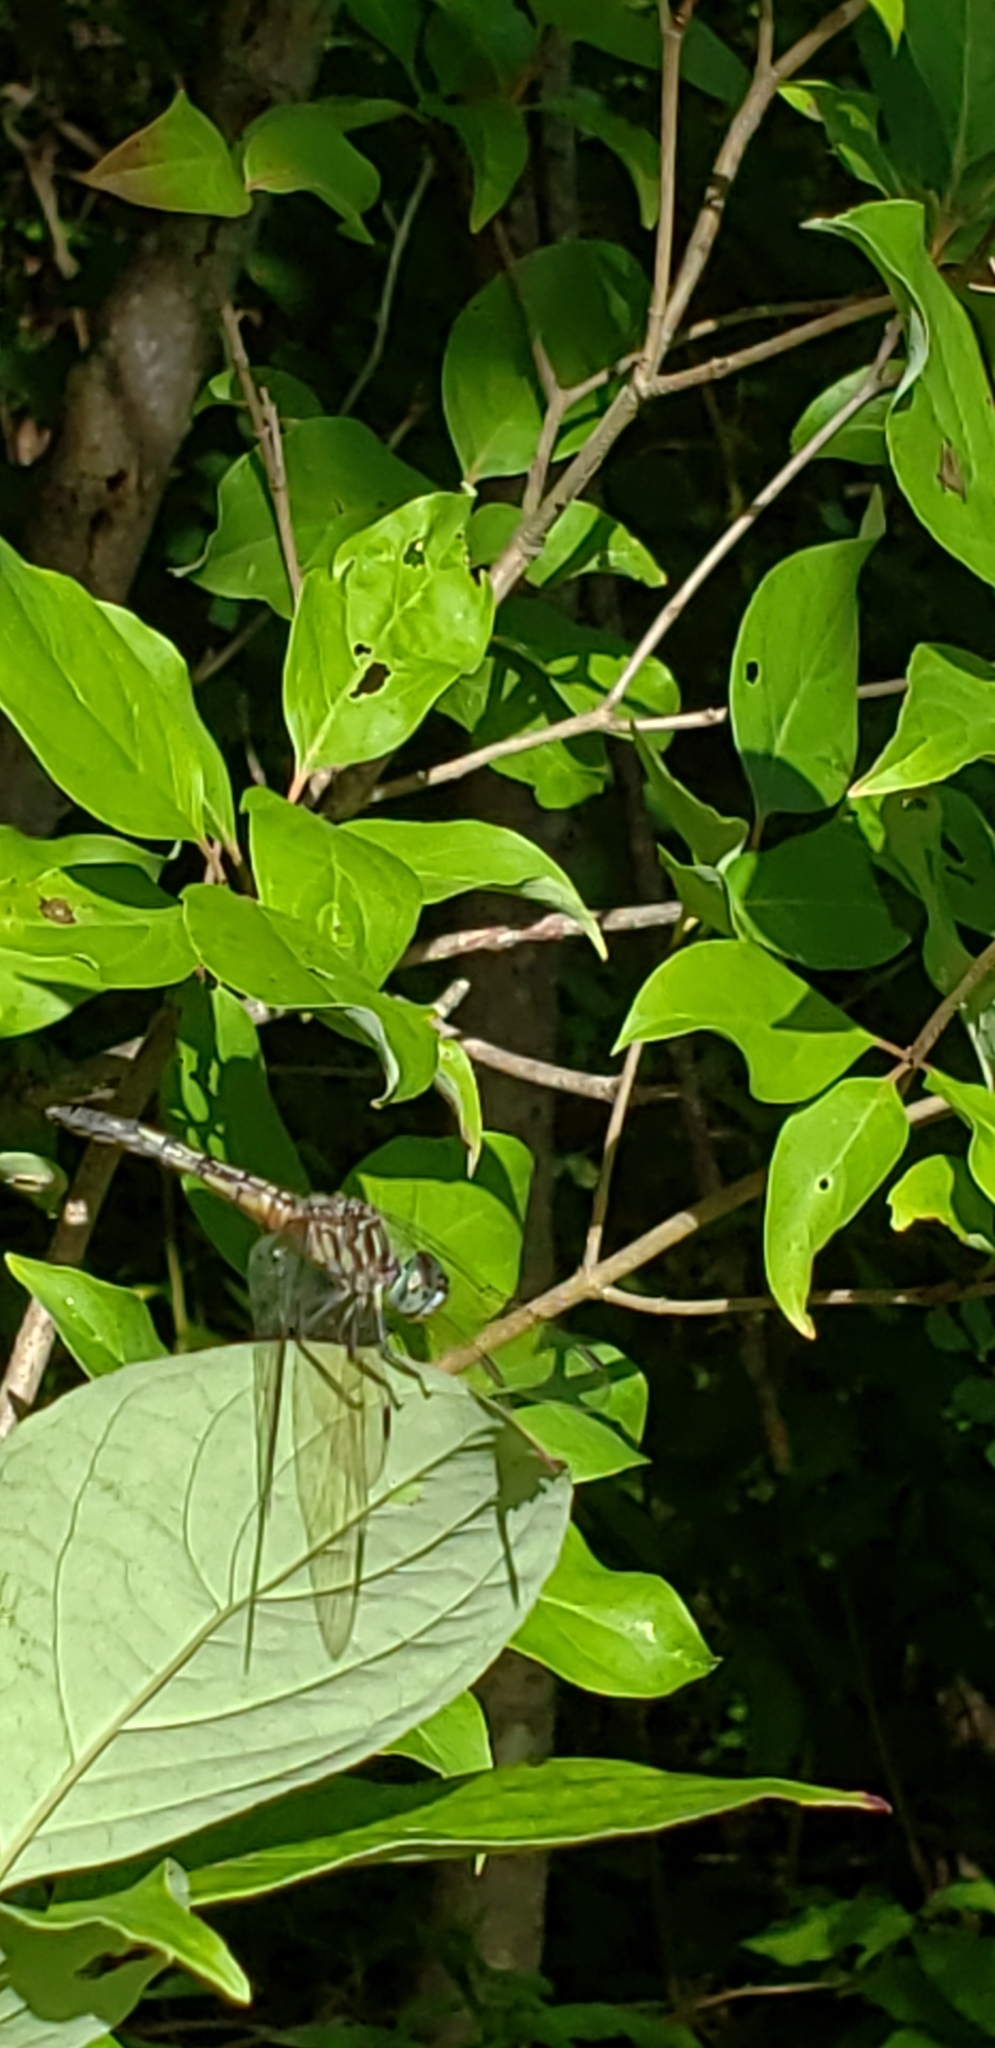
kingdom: Animalia
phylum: Arthropoda
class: Insecta
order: Odonata
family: Libellulidae
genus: Pachydiplax
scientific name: Pachydiplax longipennis
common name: Blue dasher
